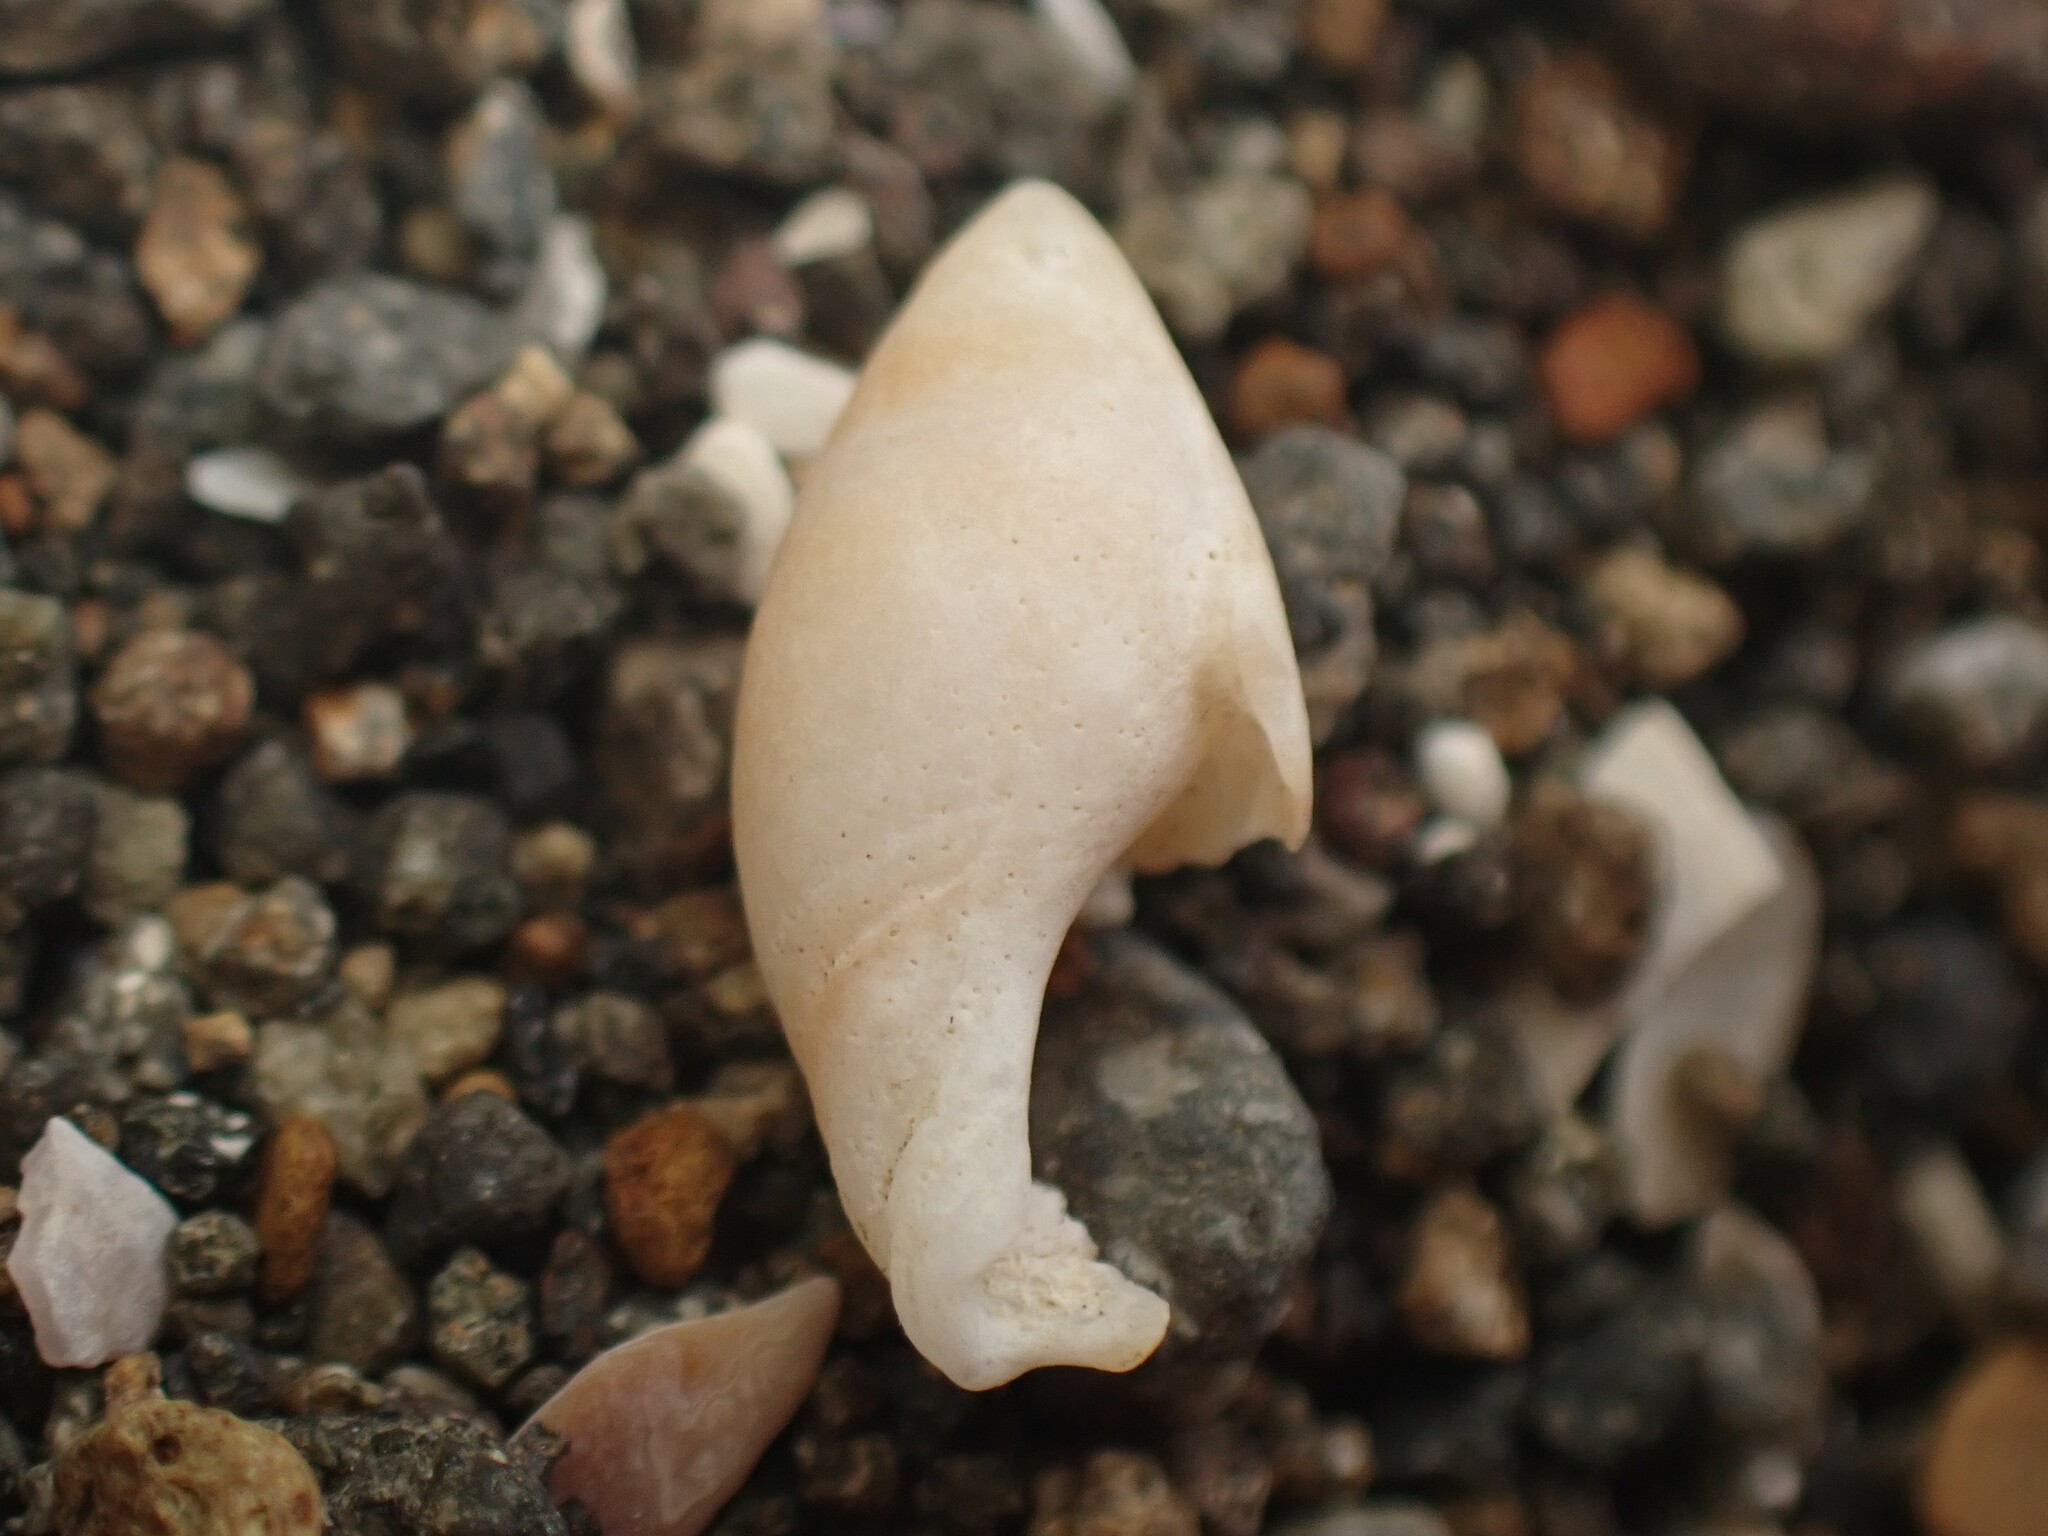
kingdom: Animalia
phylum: Mollusca
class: Gastropoda
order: Neogastropoda
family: Ancillariidae
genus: Amalda
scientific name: Amalda novaezelandiae
